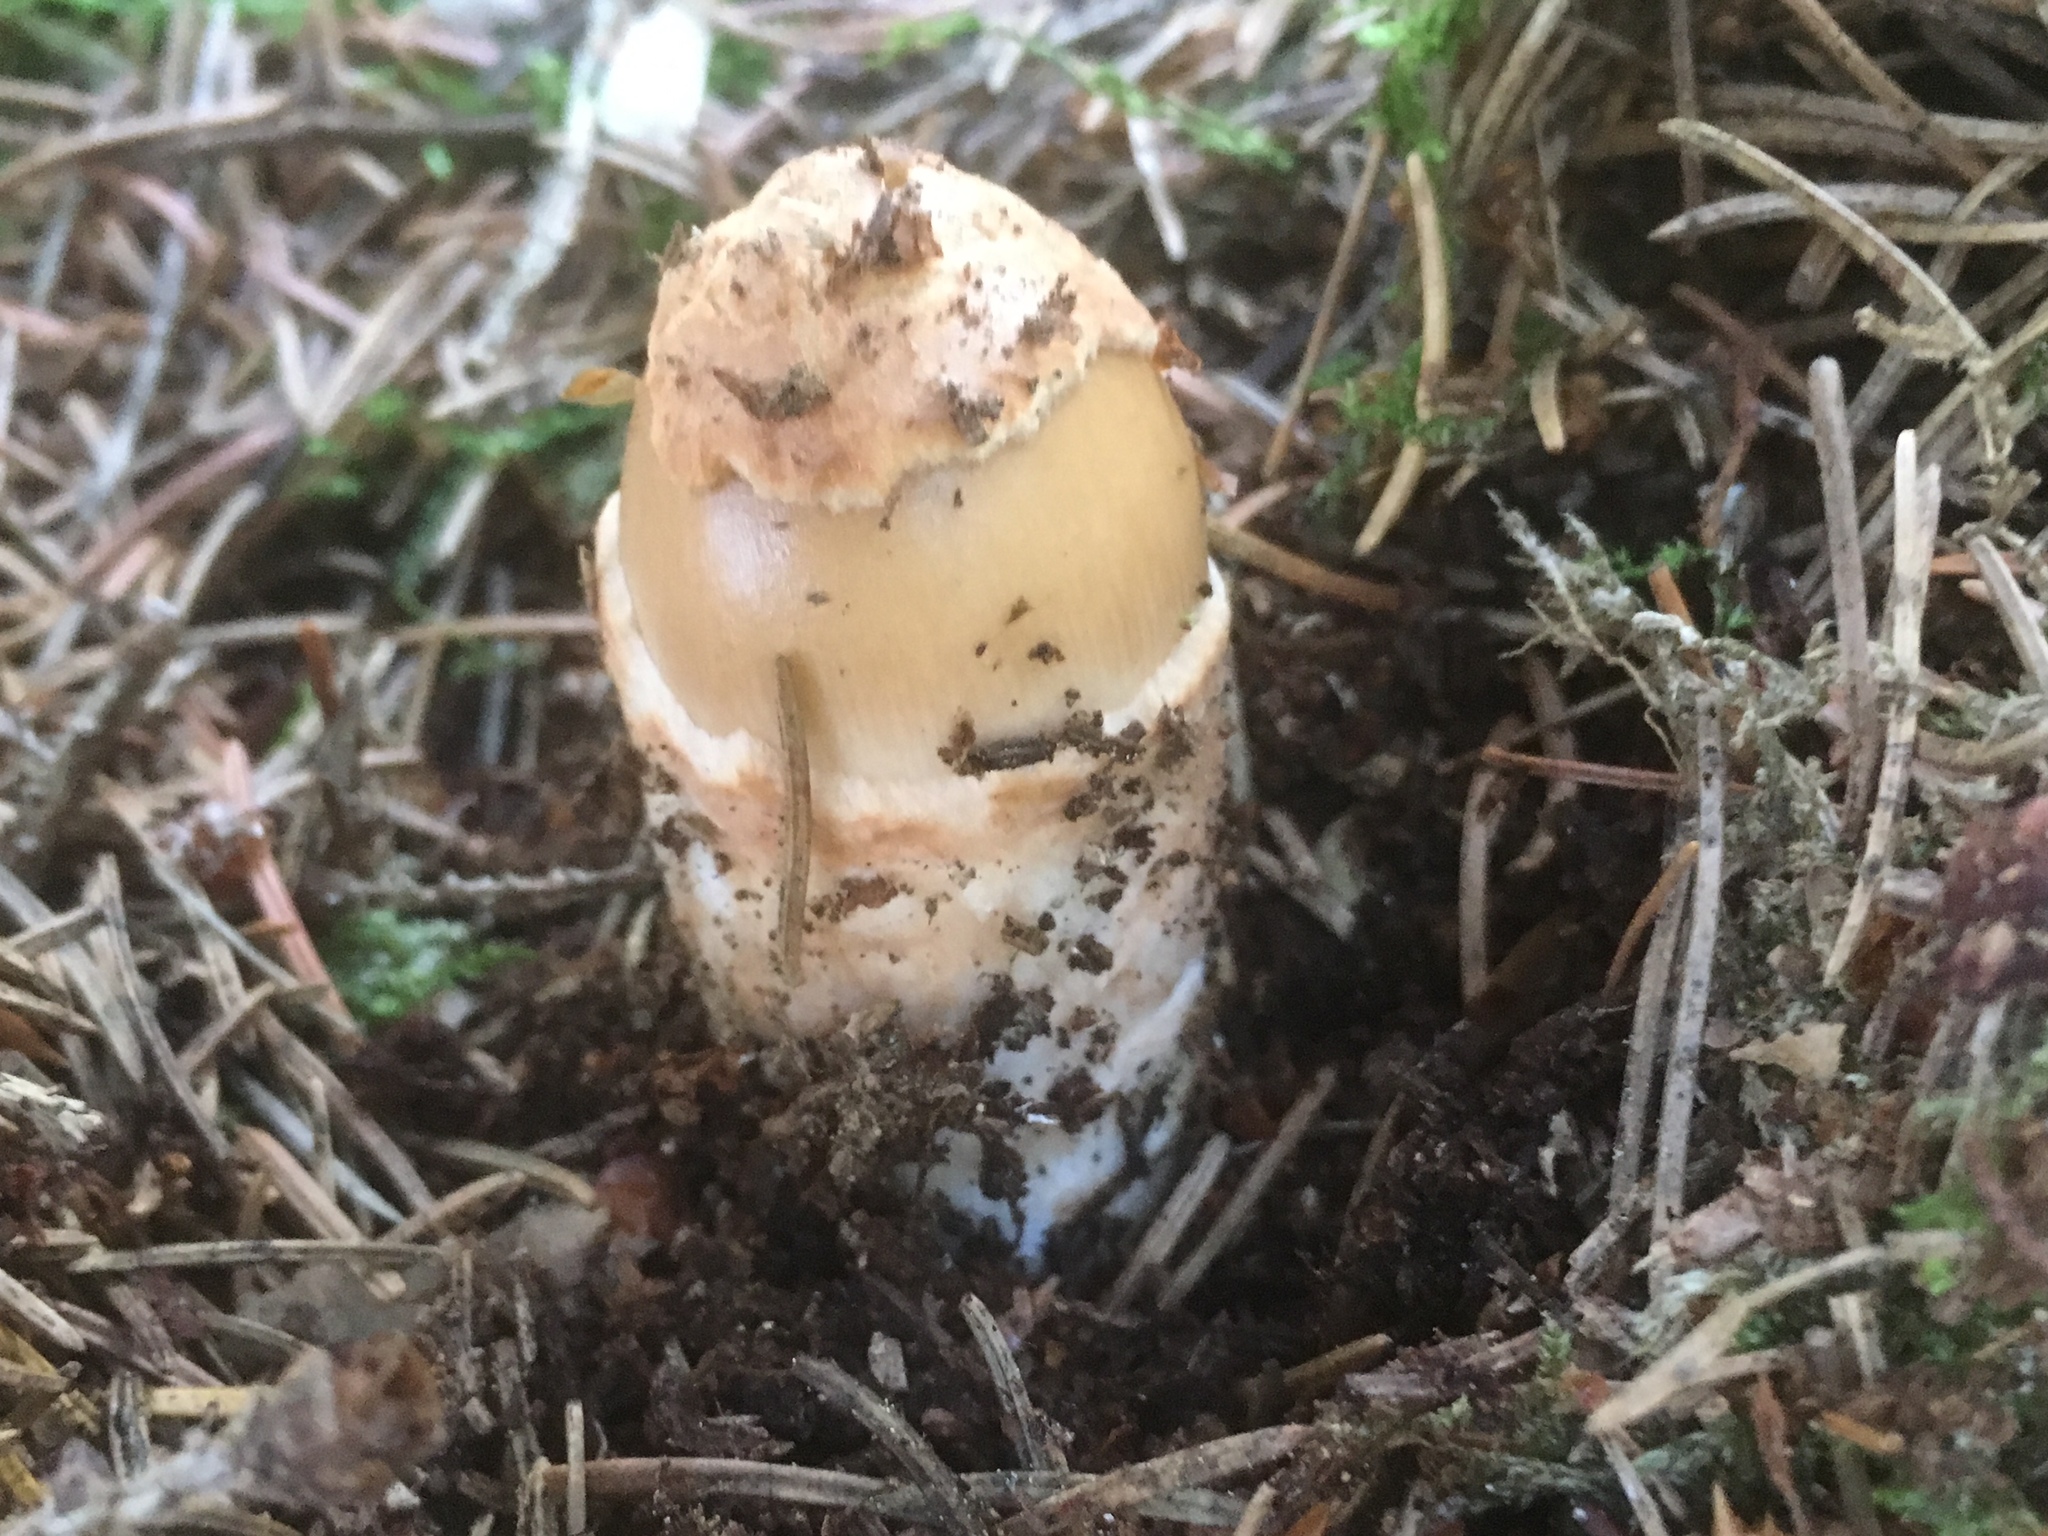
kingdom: Fungi
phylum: Basidiomycota
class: Agaricomycetes
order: Agaricales
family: Amanitaceae
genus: Amanita
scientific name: Amanita fulva
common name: Tawny grisette
